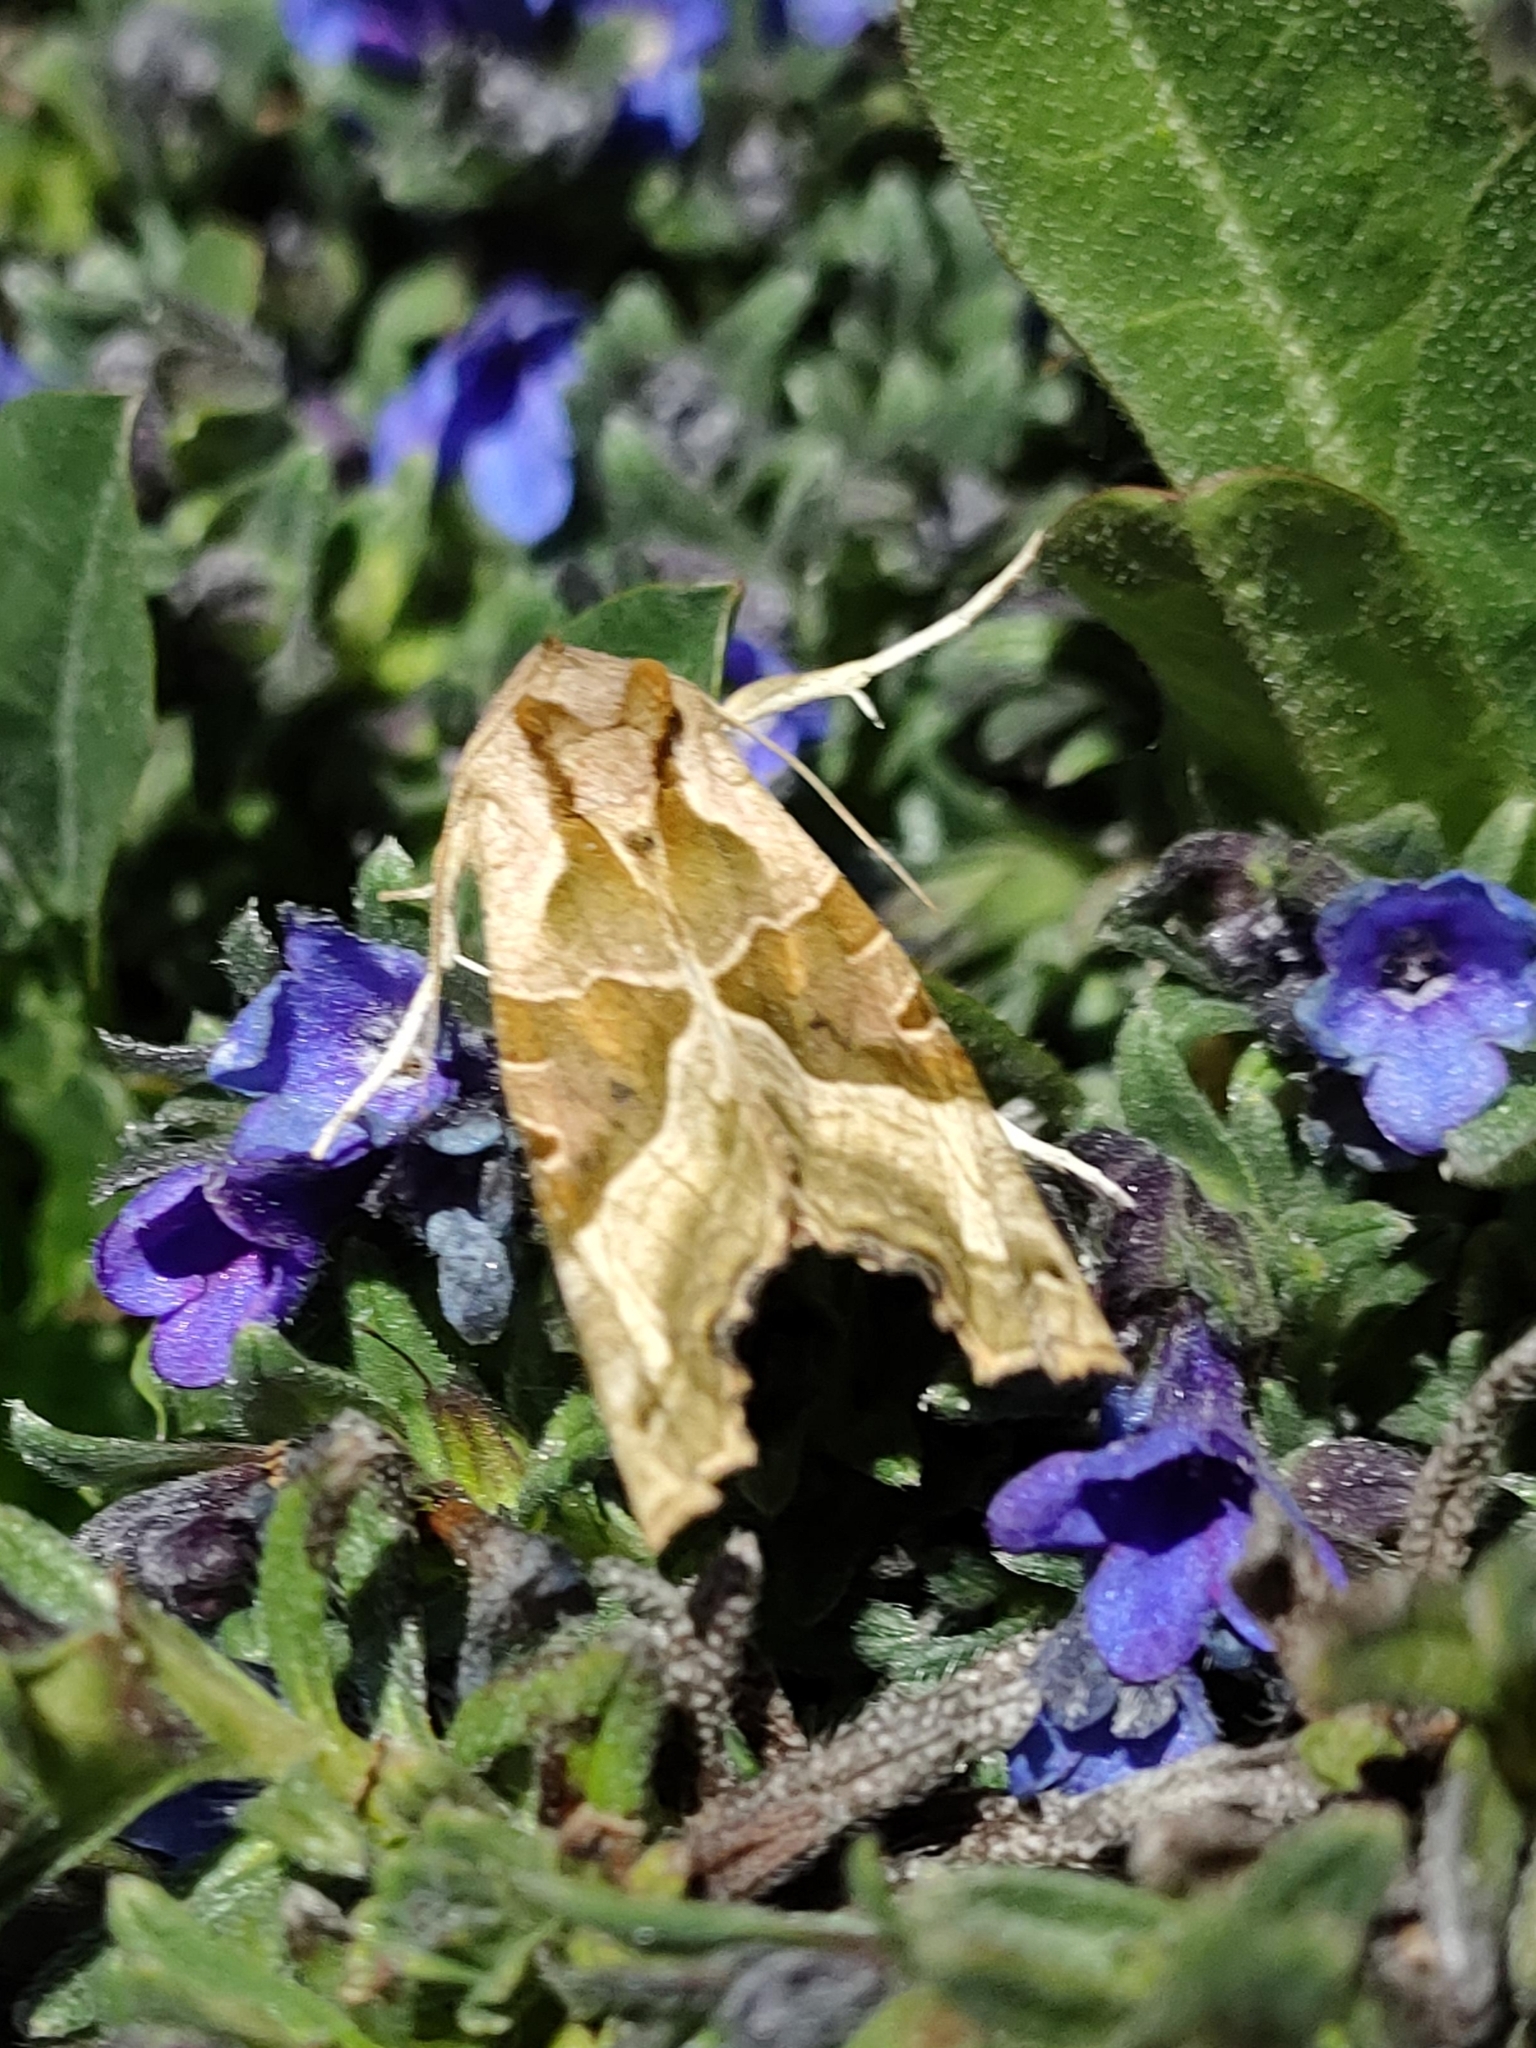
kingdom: Animalia
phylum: Arthropoda
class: Insecta
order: Lepidoptera
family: Noctuidae
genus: Phlogophora
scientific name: Phlogophora meticulosa
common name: Angle shades
